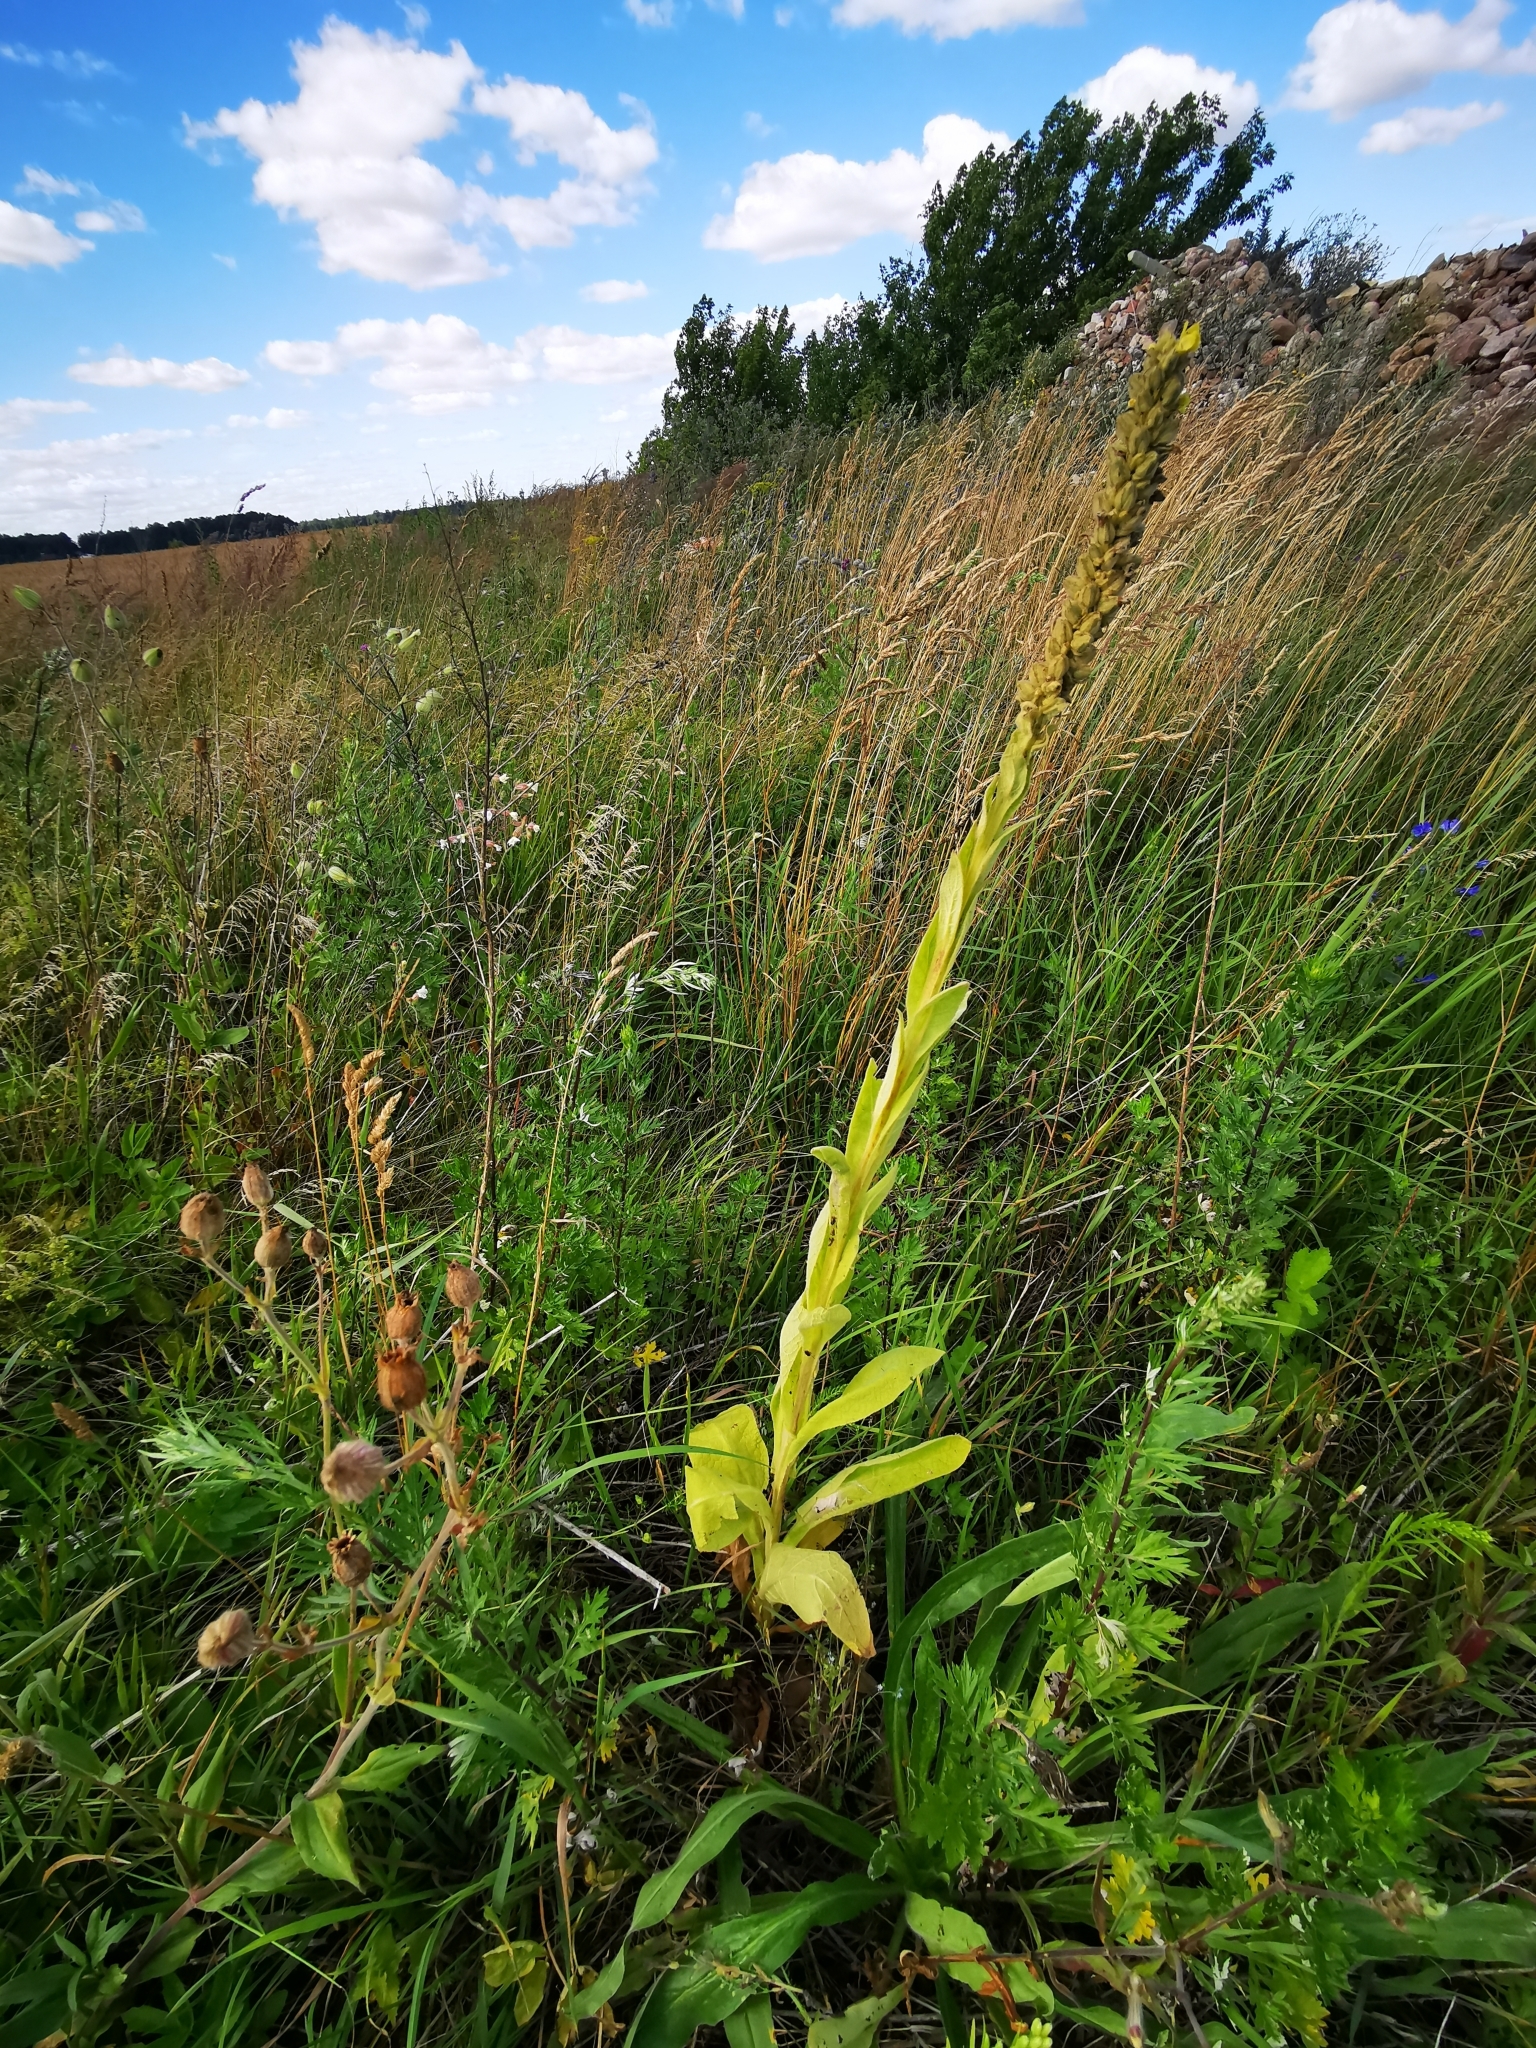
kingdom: Plantae
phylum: Tracheophyta
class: Magnoliopsida
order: Lamiales
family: Scrophulariaceae
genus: Verbascum
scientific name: Verbascum thapsus
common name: Common mullein
